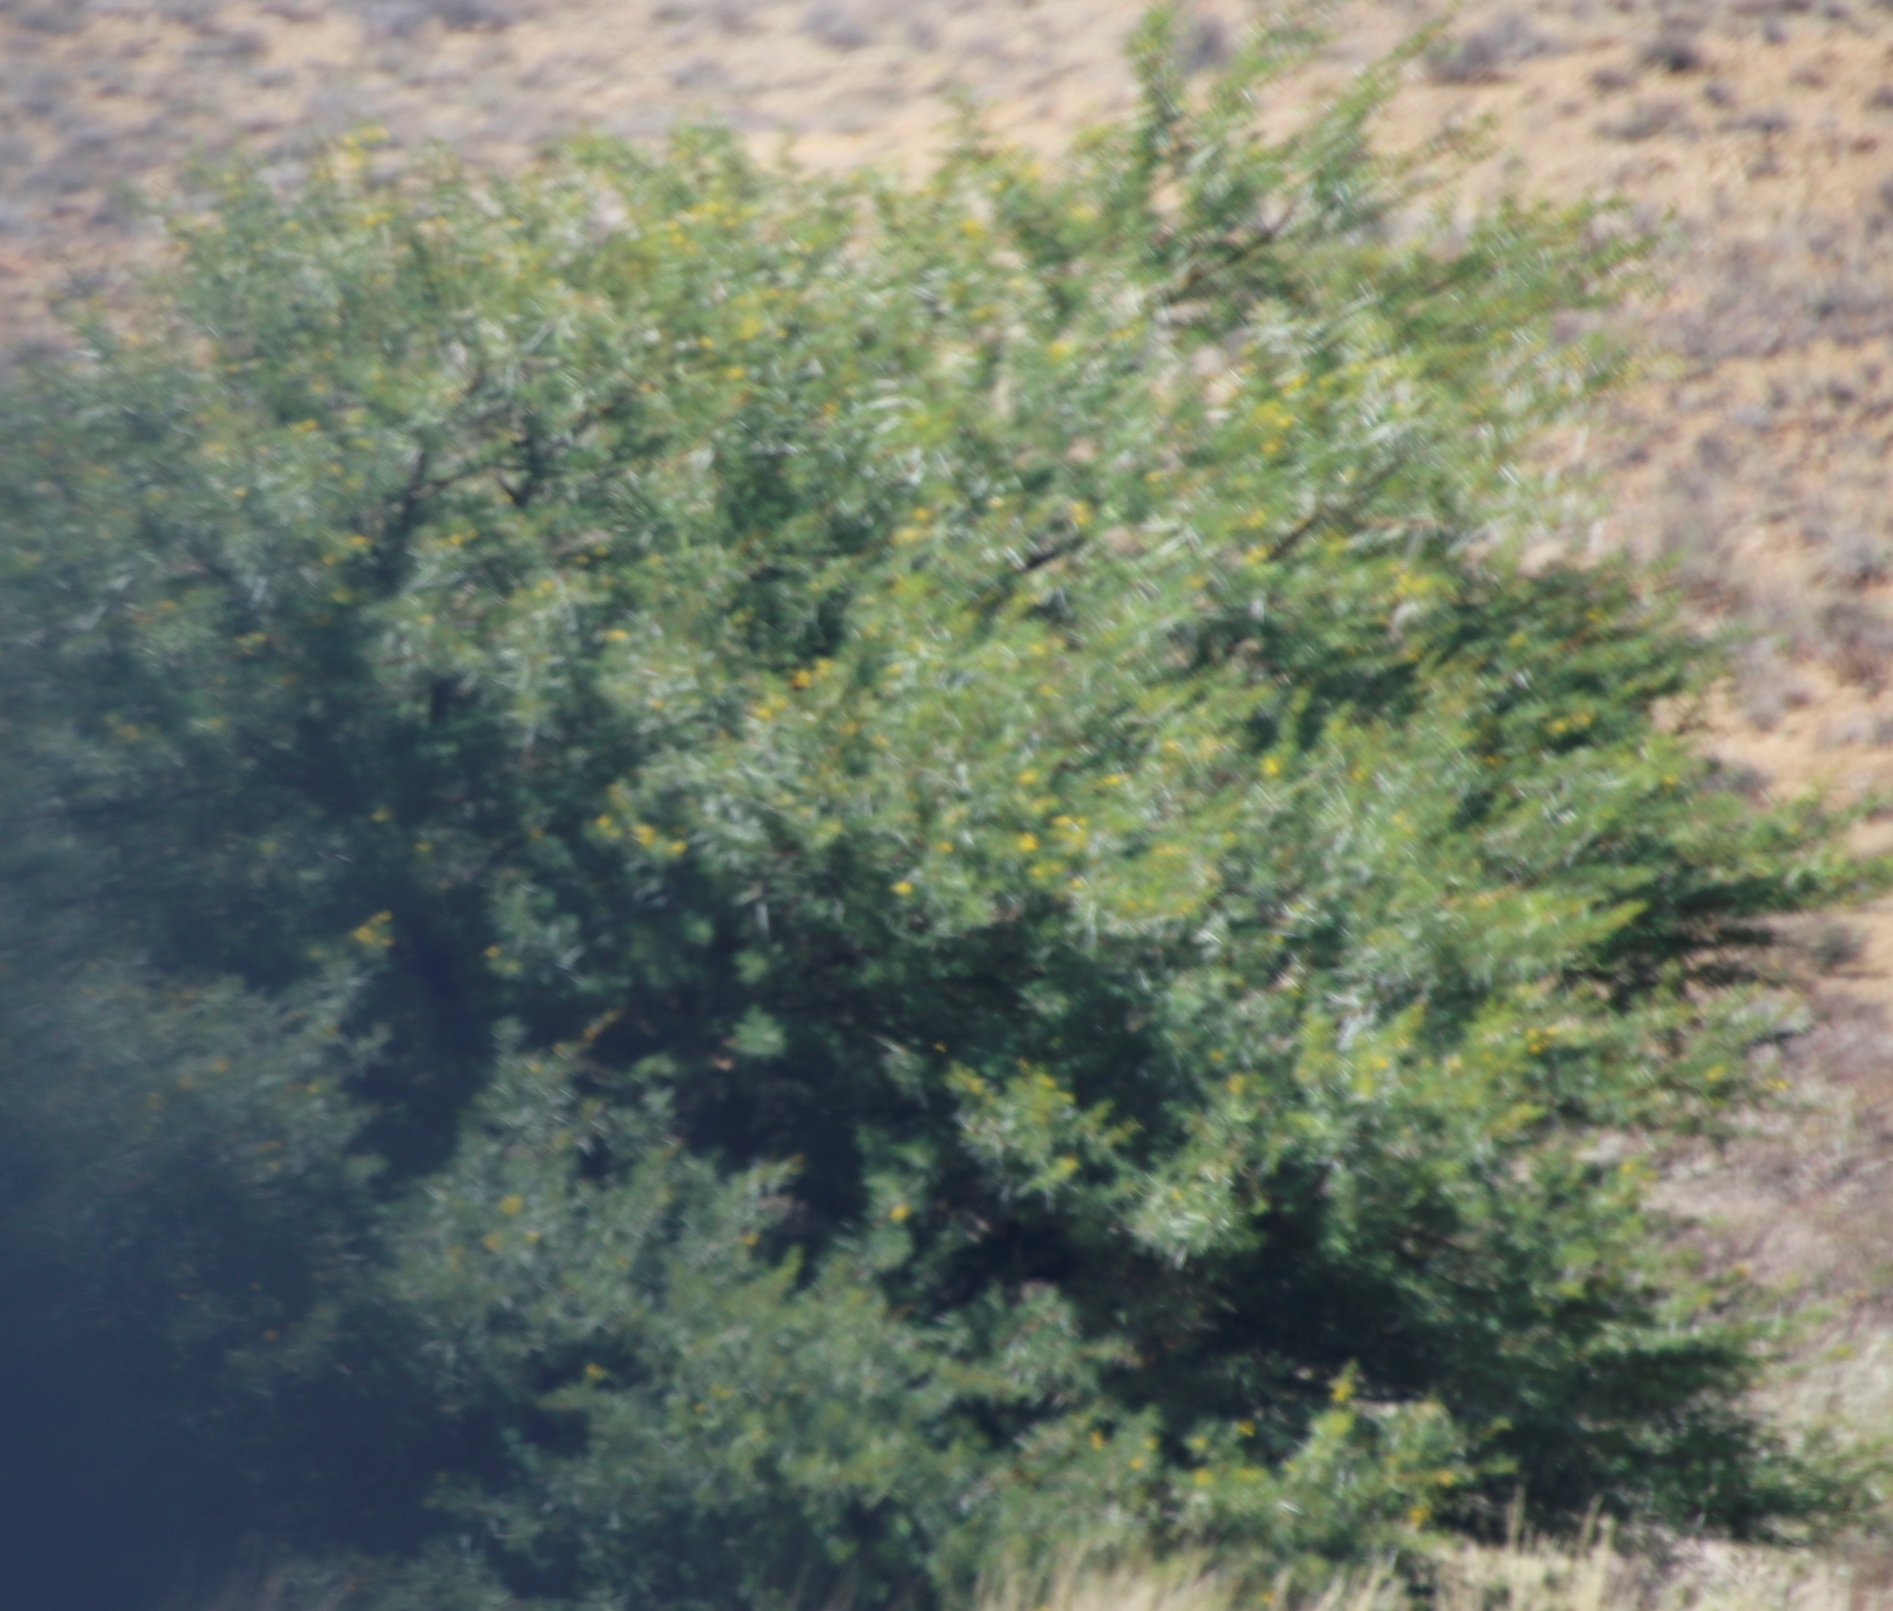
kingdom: Plantae
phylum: Tracheophyta
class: Magnoliopsida
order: Fabales
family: Fabaceae
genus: Vachellia
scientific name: Vachellia karroo
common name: Sweet thorn
